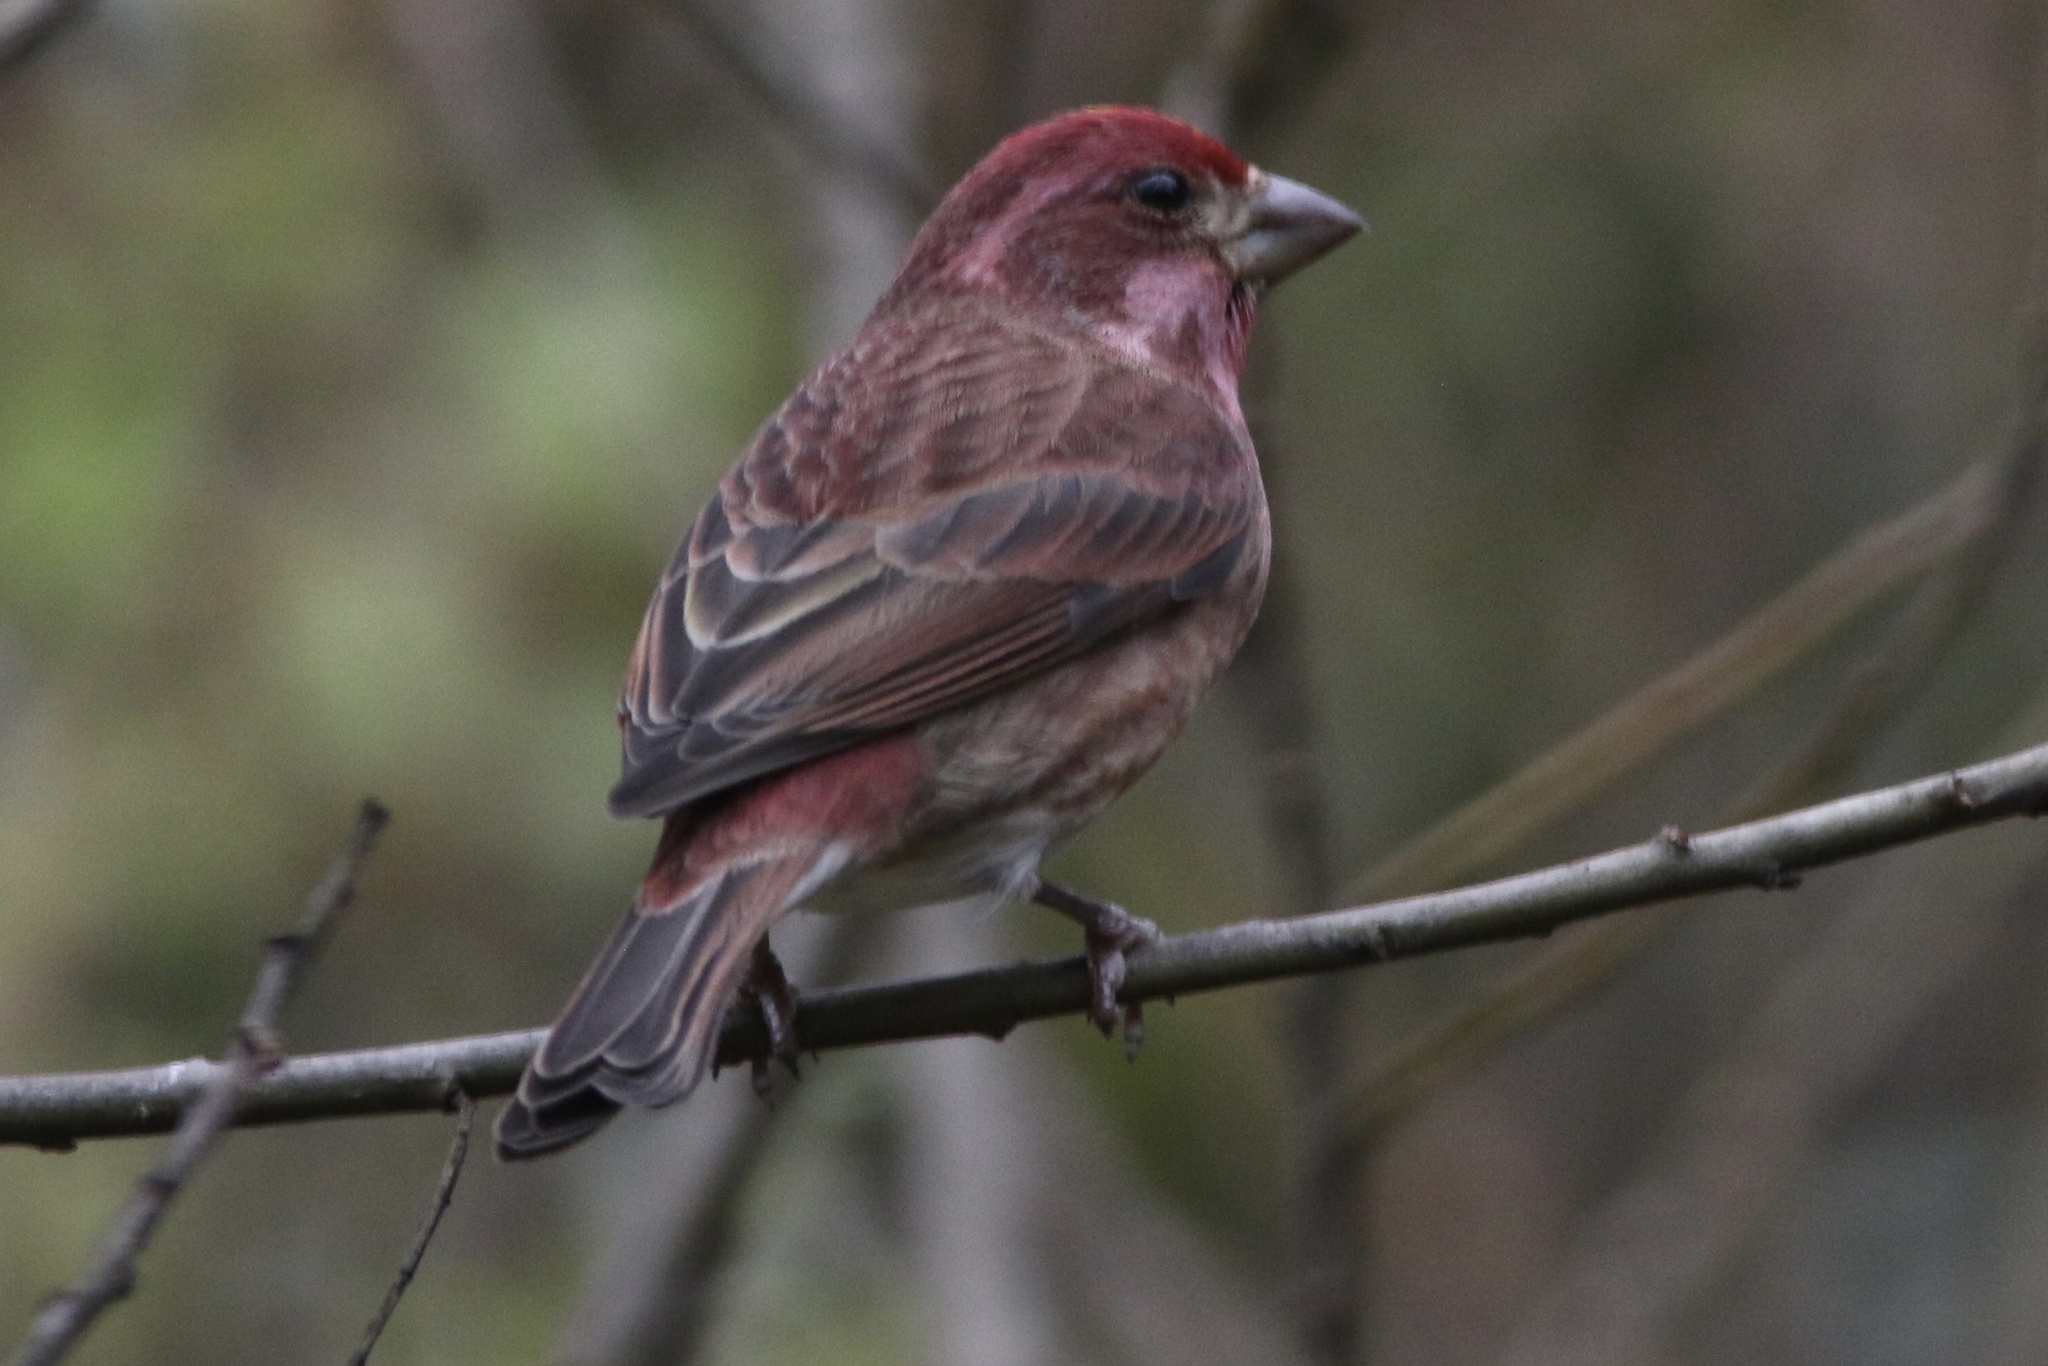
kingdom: Animalia
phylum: Chordata
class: Aves
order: Passeriformes
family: Fringillidae
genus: Haemorhous
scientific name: Haemorhous purpureus
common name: Purple finch
